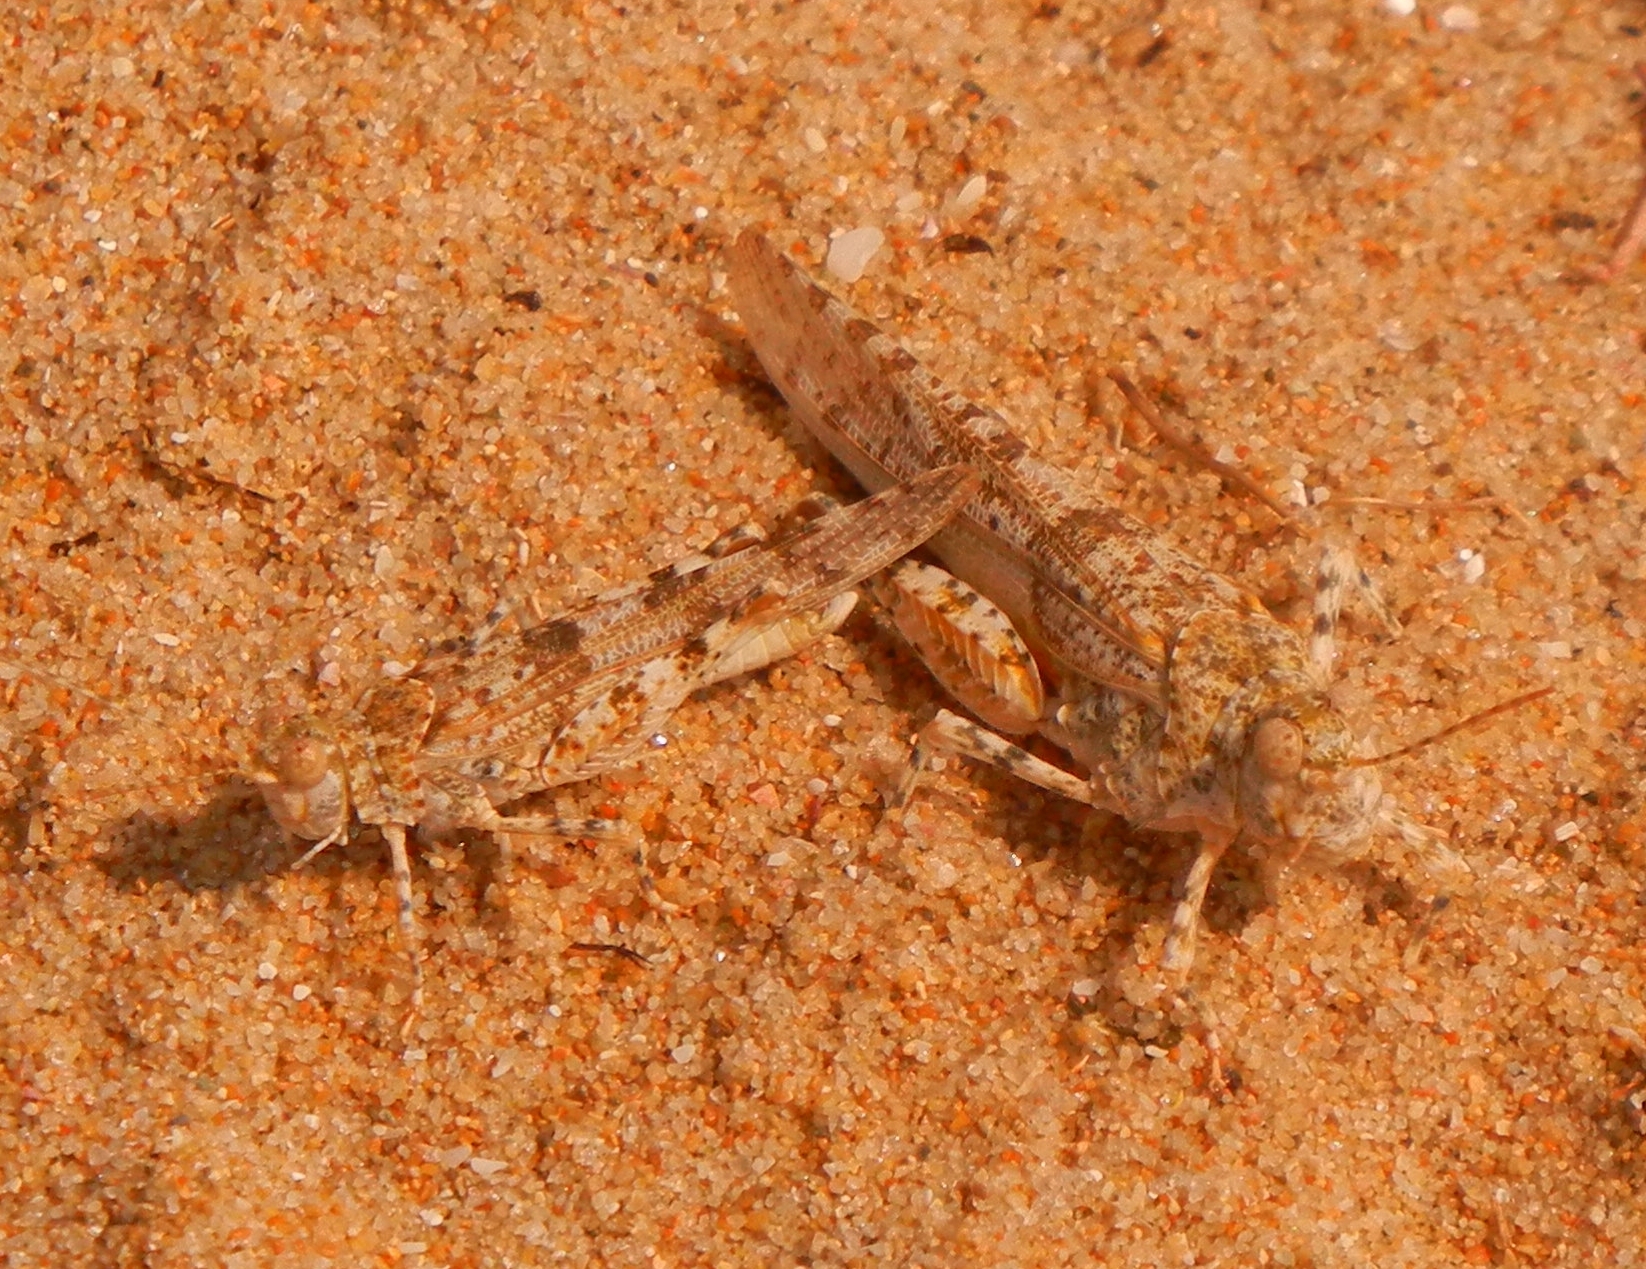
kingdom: Animalia
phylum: Arthropoda
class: Insecta
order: Orthoptera
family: Acrididae
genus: Sphingonotus
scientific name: Sphingonotus caerulans
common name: Blue-winged locust
